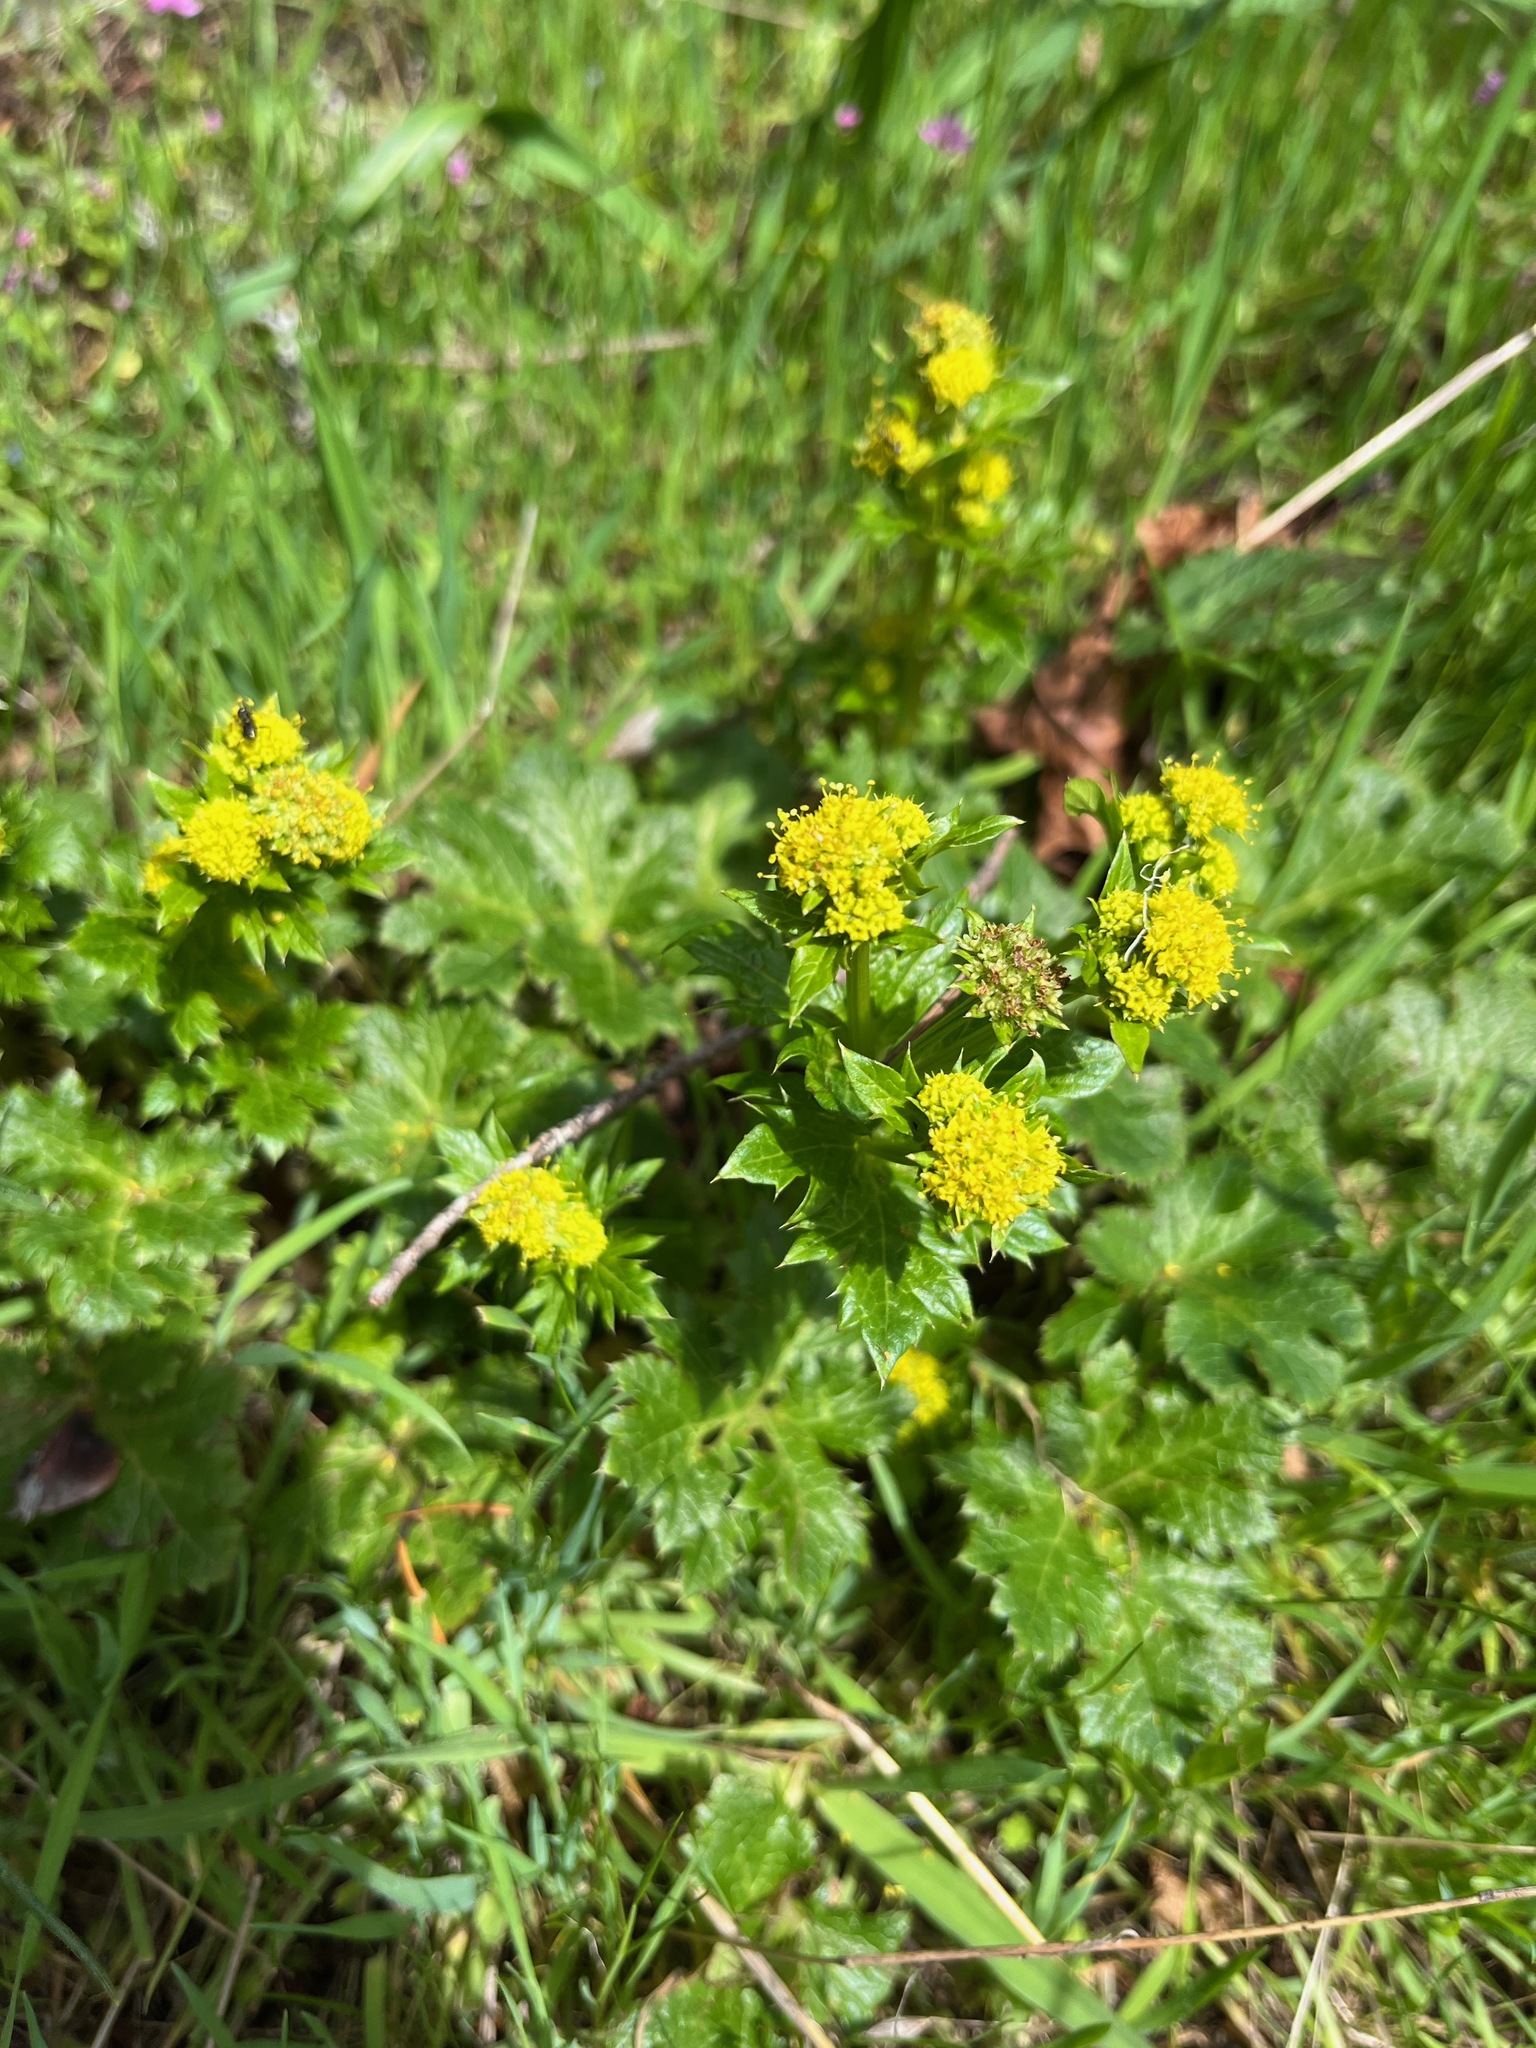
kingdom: Plantae
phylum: Tracheophyta
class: Magnoliopsida
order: Apiales
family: Apiaceae
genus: Sanicula
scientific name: Sanicula crassicaulis
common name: Western snakeroot
